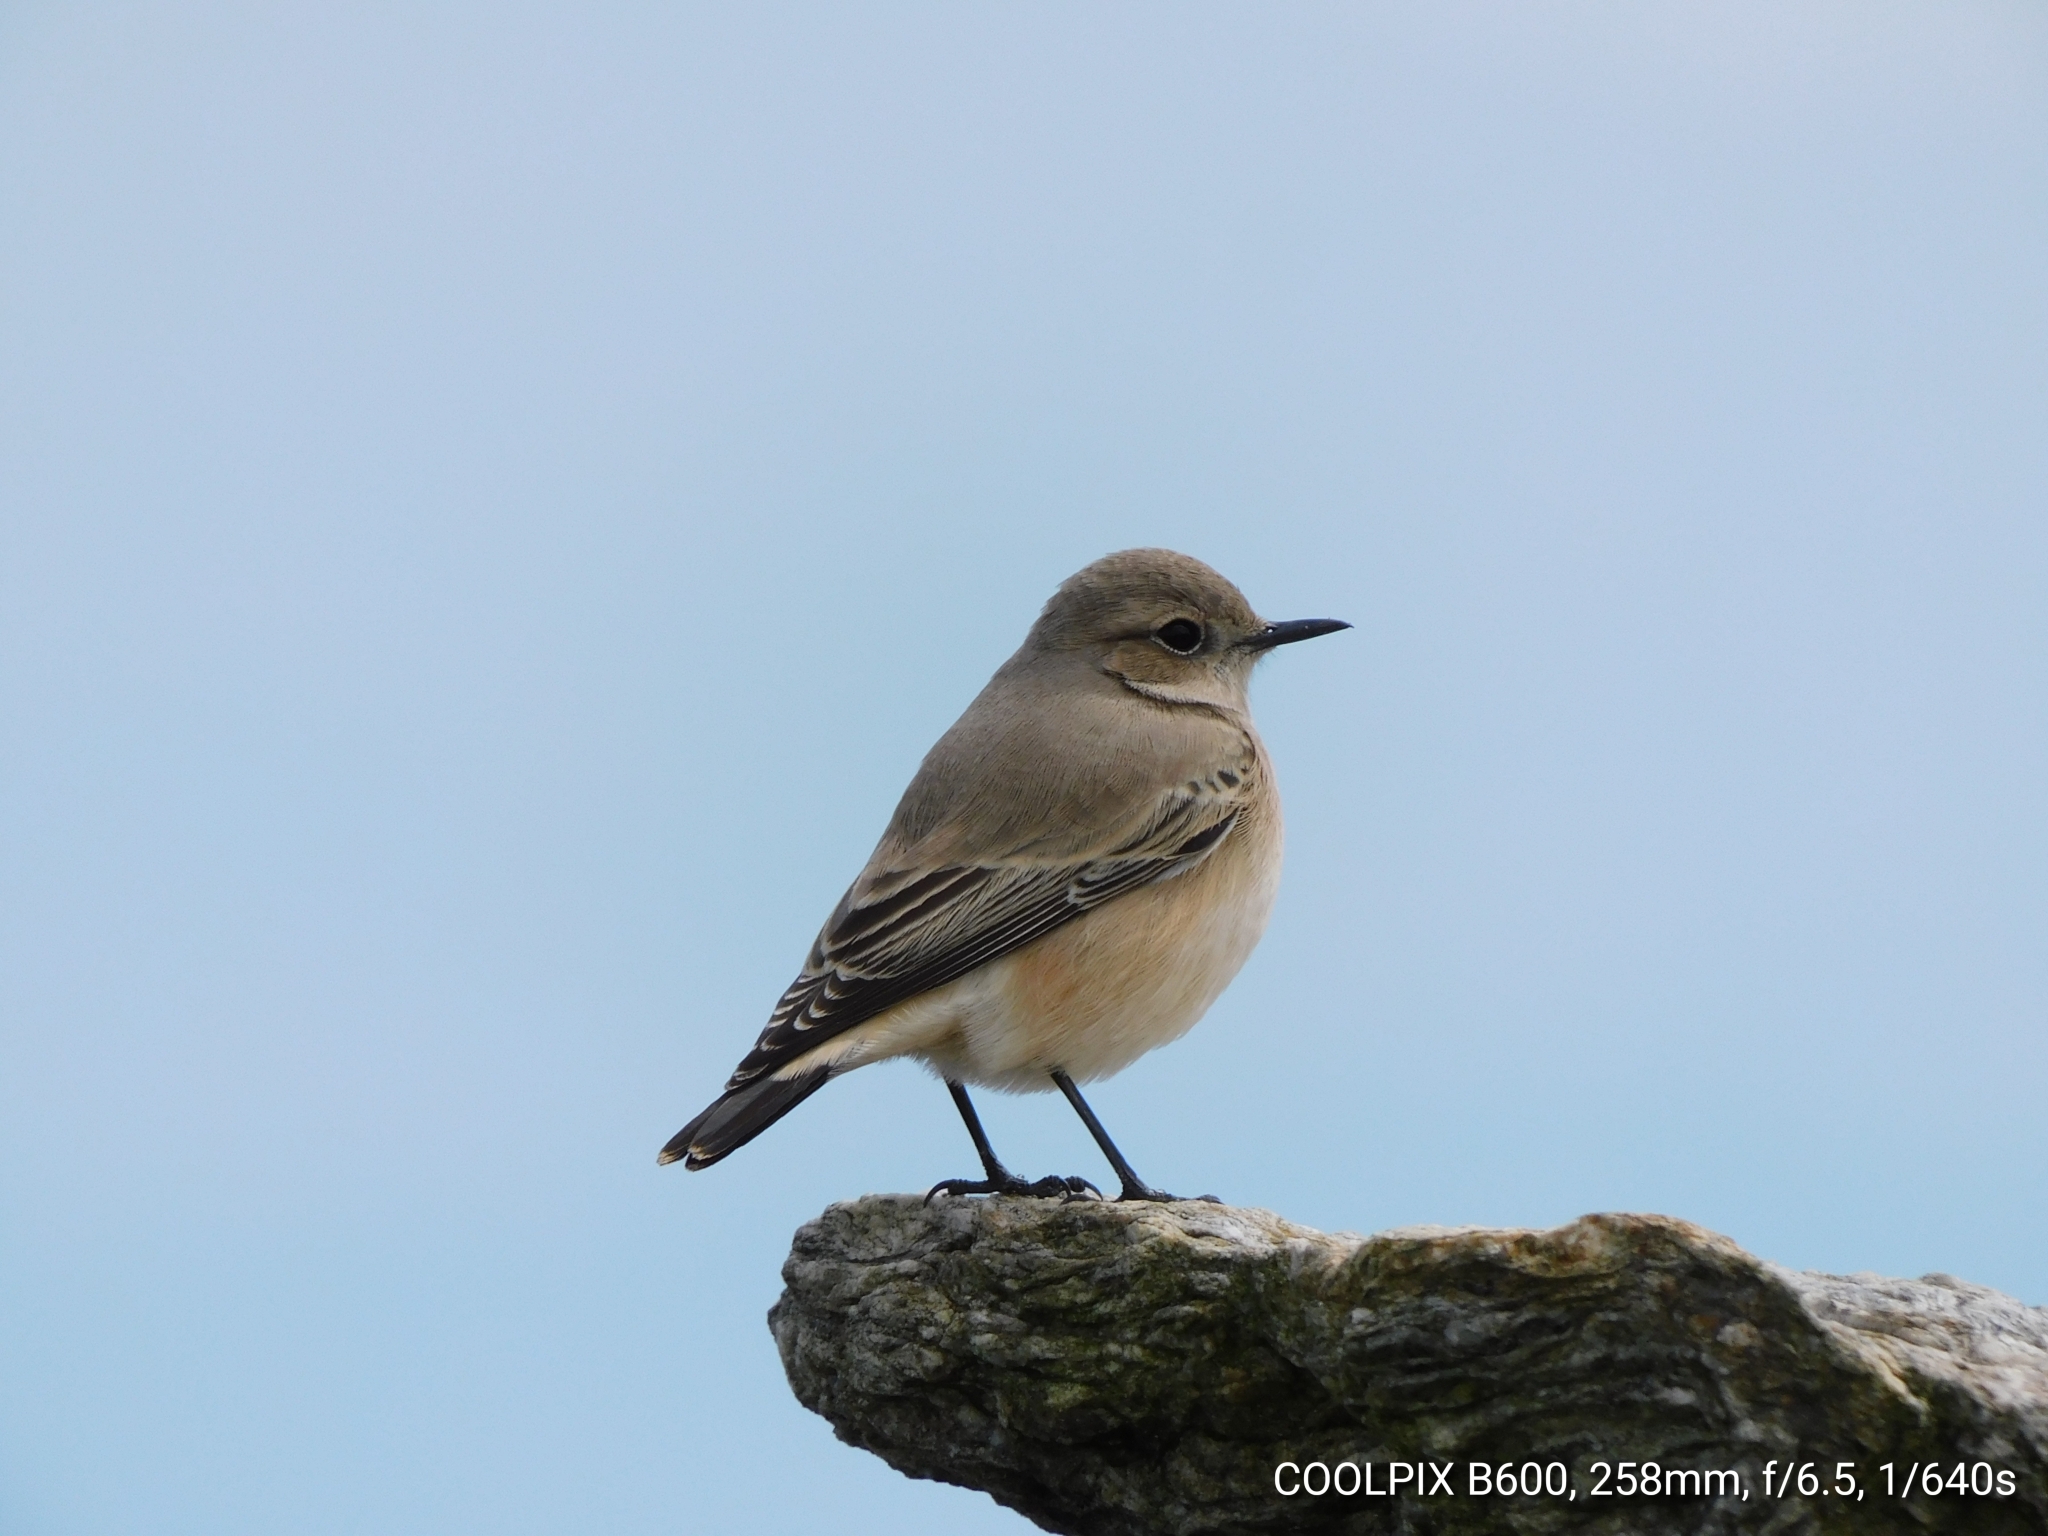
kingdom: Animalia
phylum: Chordata
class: Aves
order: Passeriformes
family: Muscicapidae
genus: Oenanthe
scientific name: Oenanthe deserti
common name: Desert wheatear
